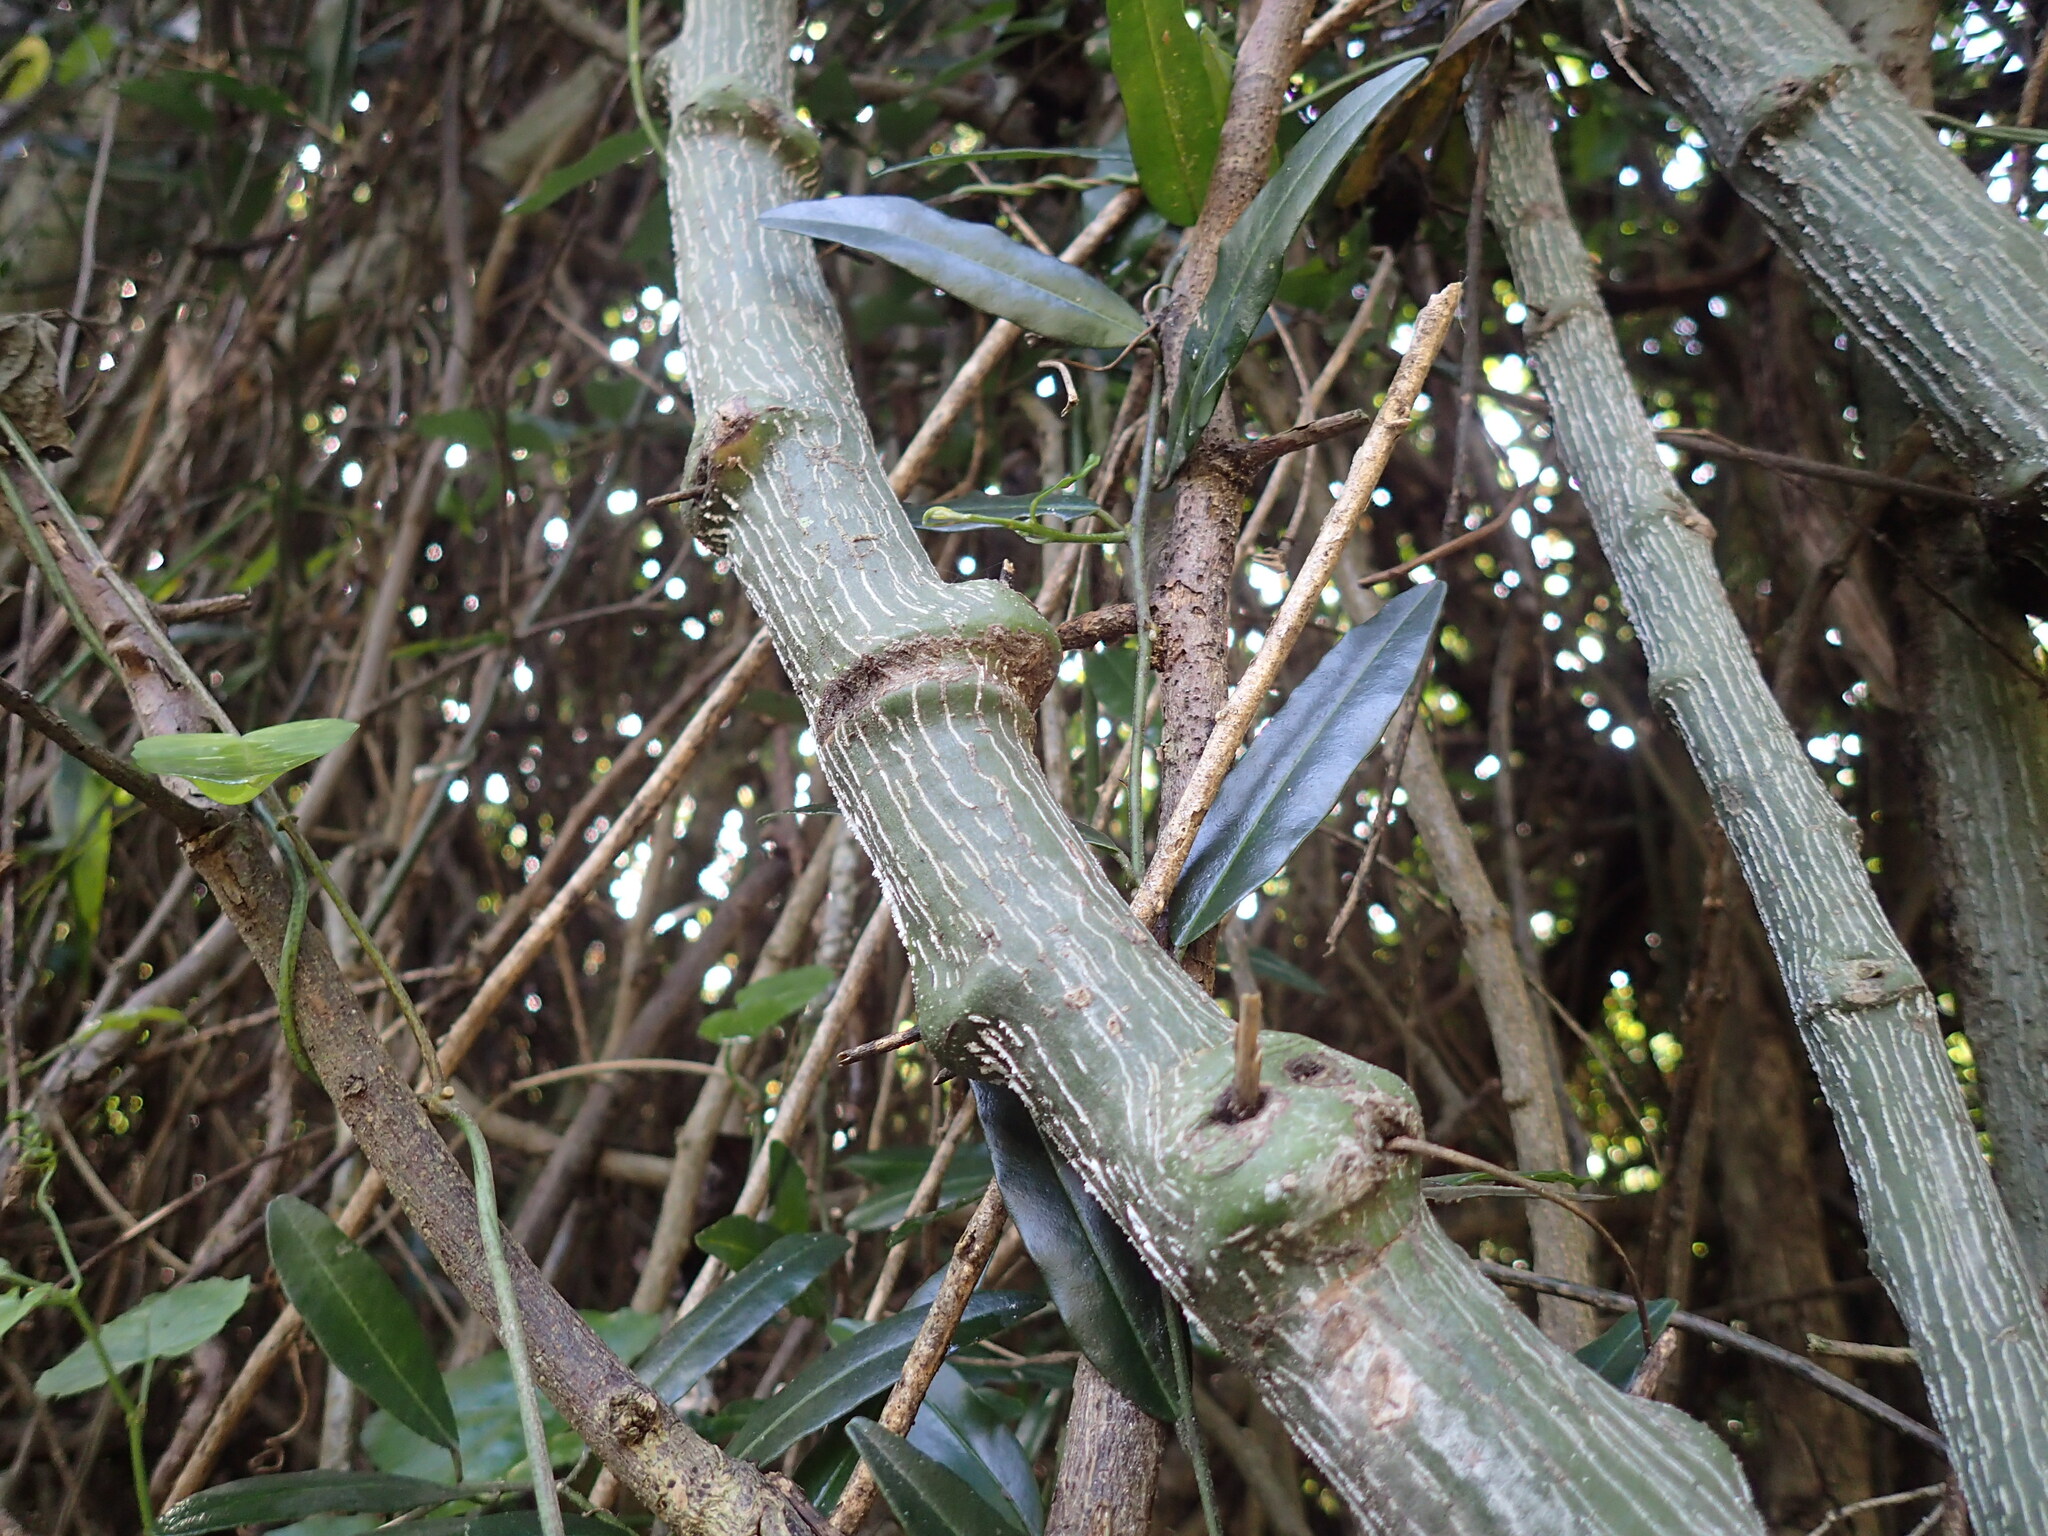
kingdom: Plantae
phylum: Tracheophyta
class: Magnoliopsida
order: Malpighiales
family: Passifloraceae
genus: Adenia
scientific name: Adenia cissampeloides
